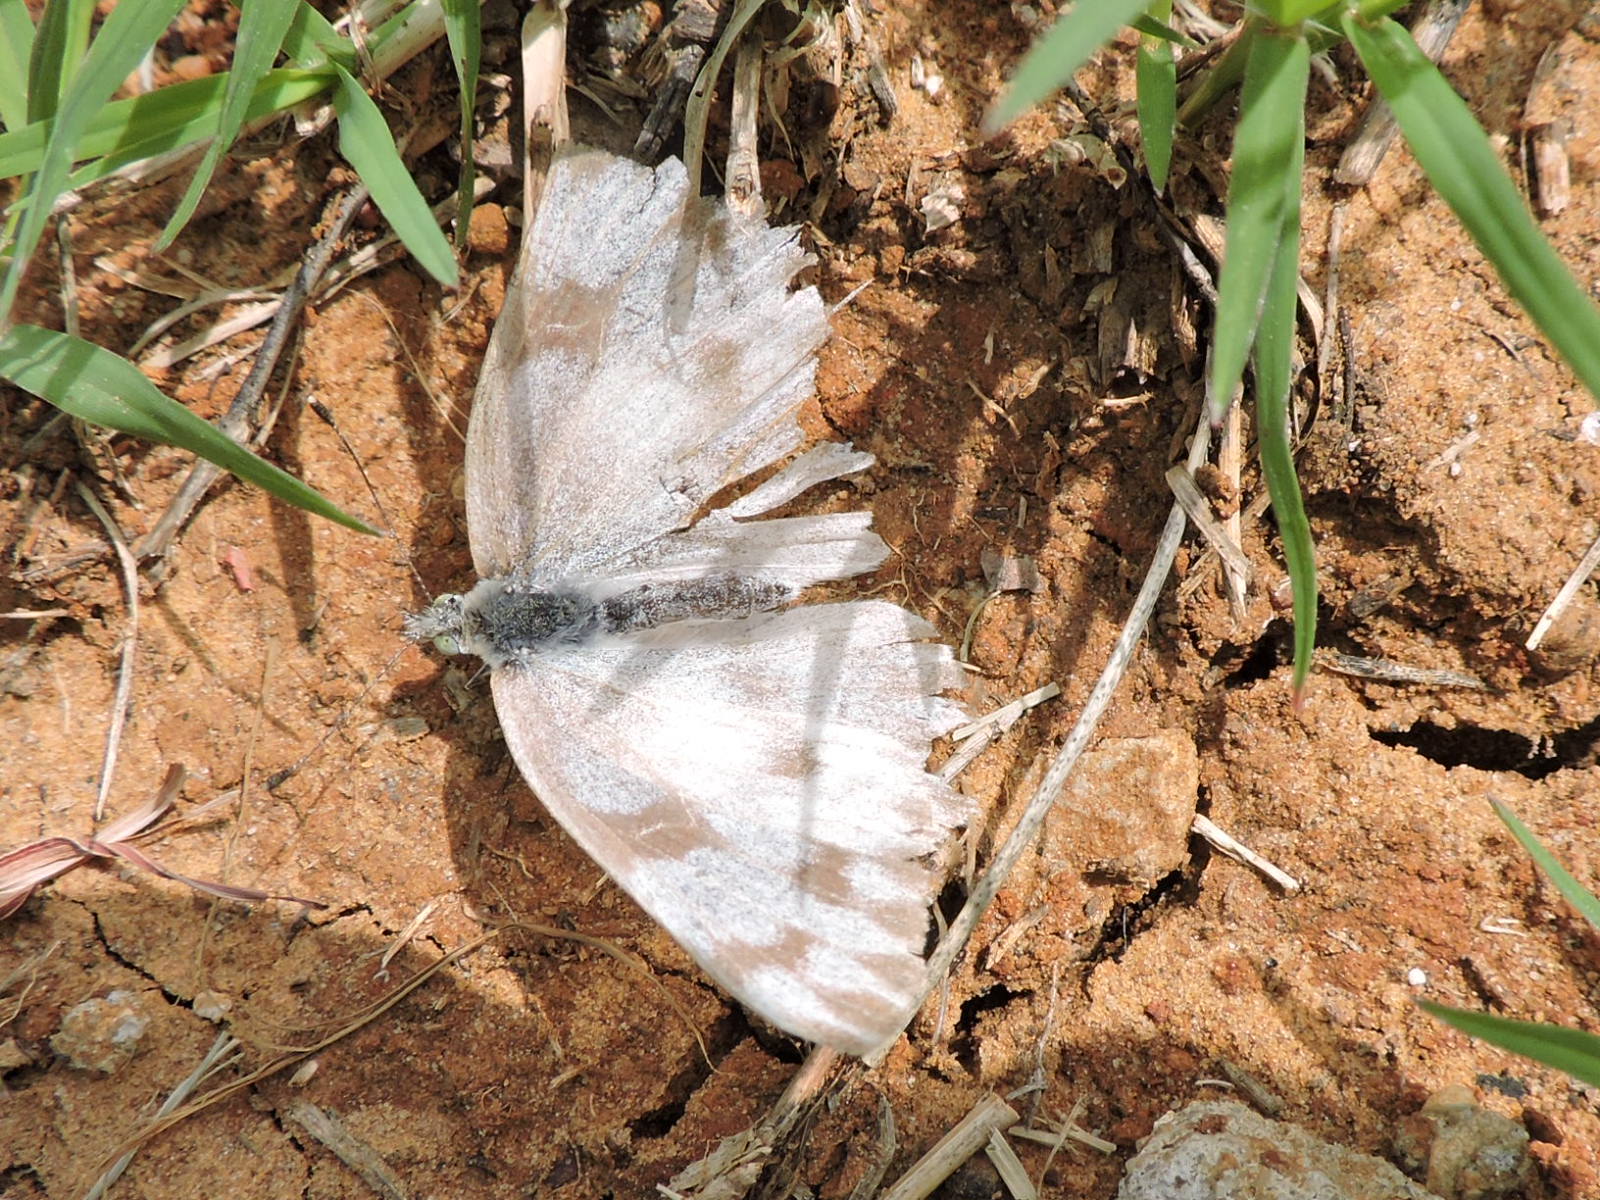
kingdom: Animalia
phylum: Arthropoda
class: Insecta
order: Lepidoptera
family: Pieridae
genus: Pontia
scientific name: Pontia protodice
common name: Checkered white
